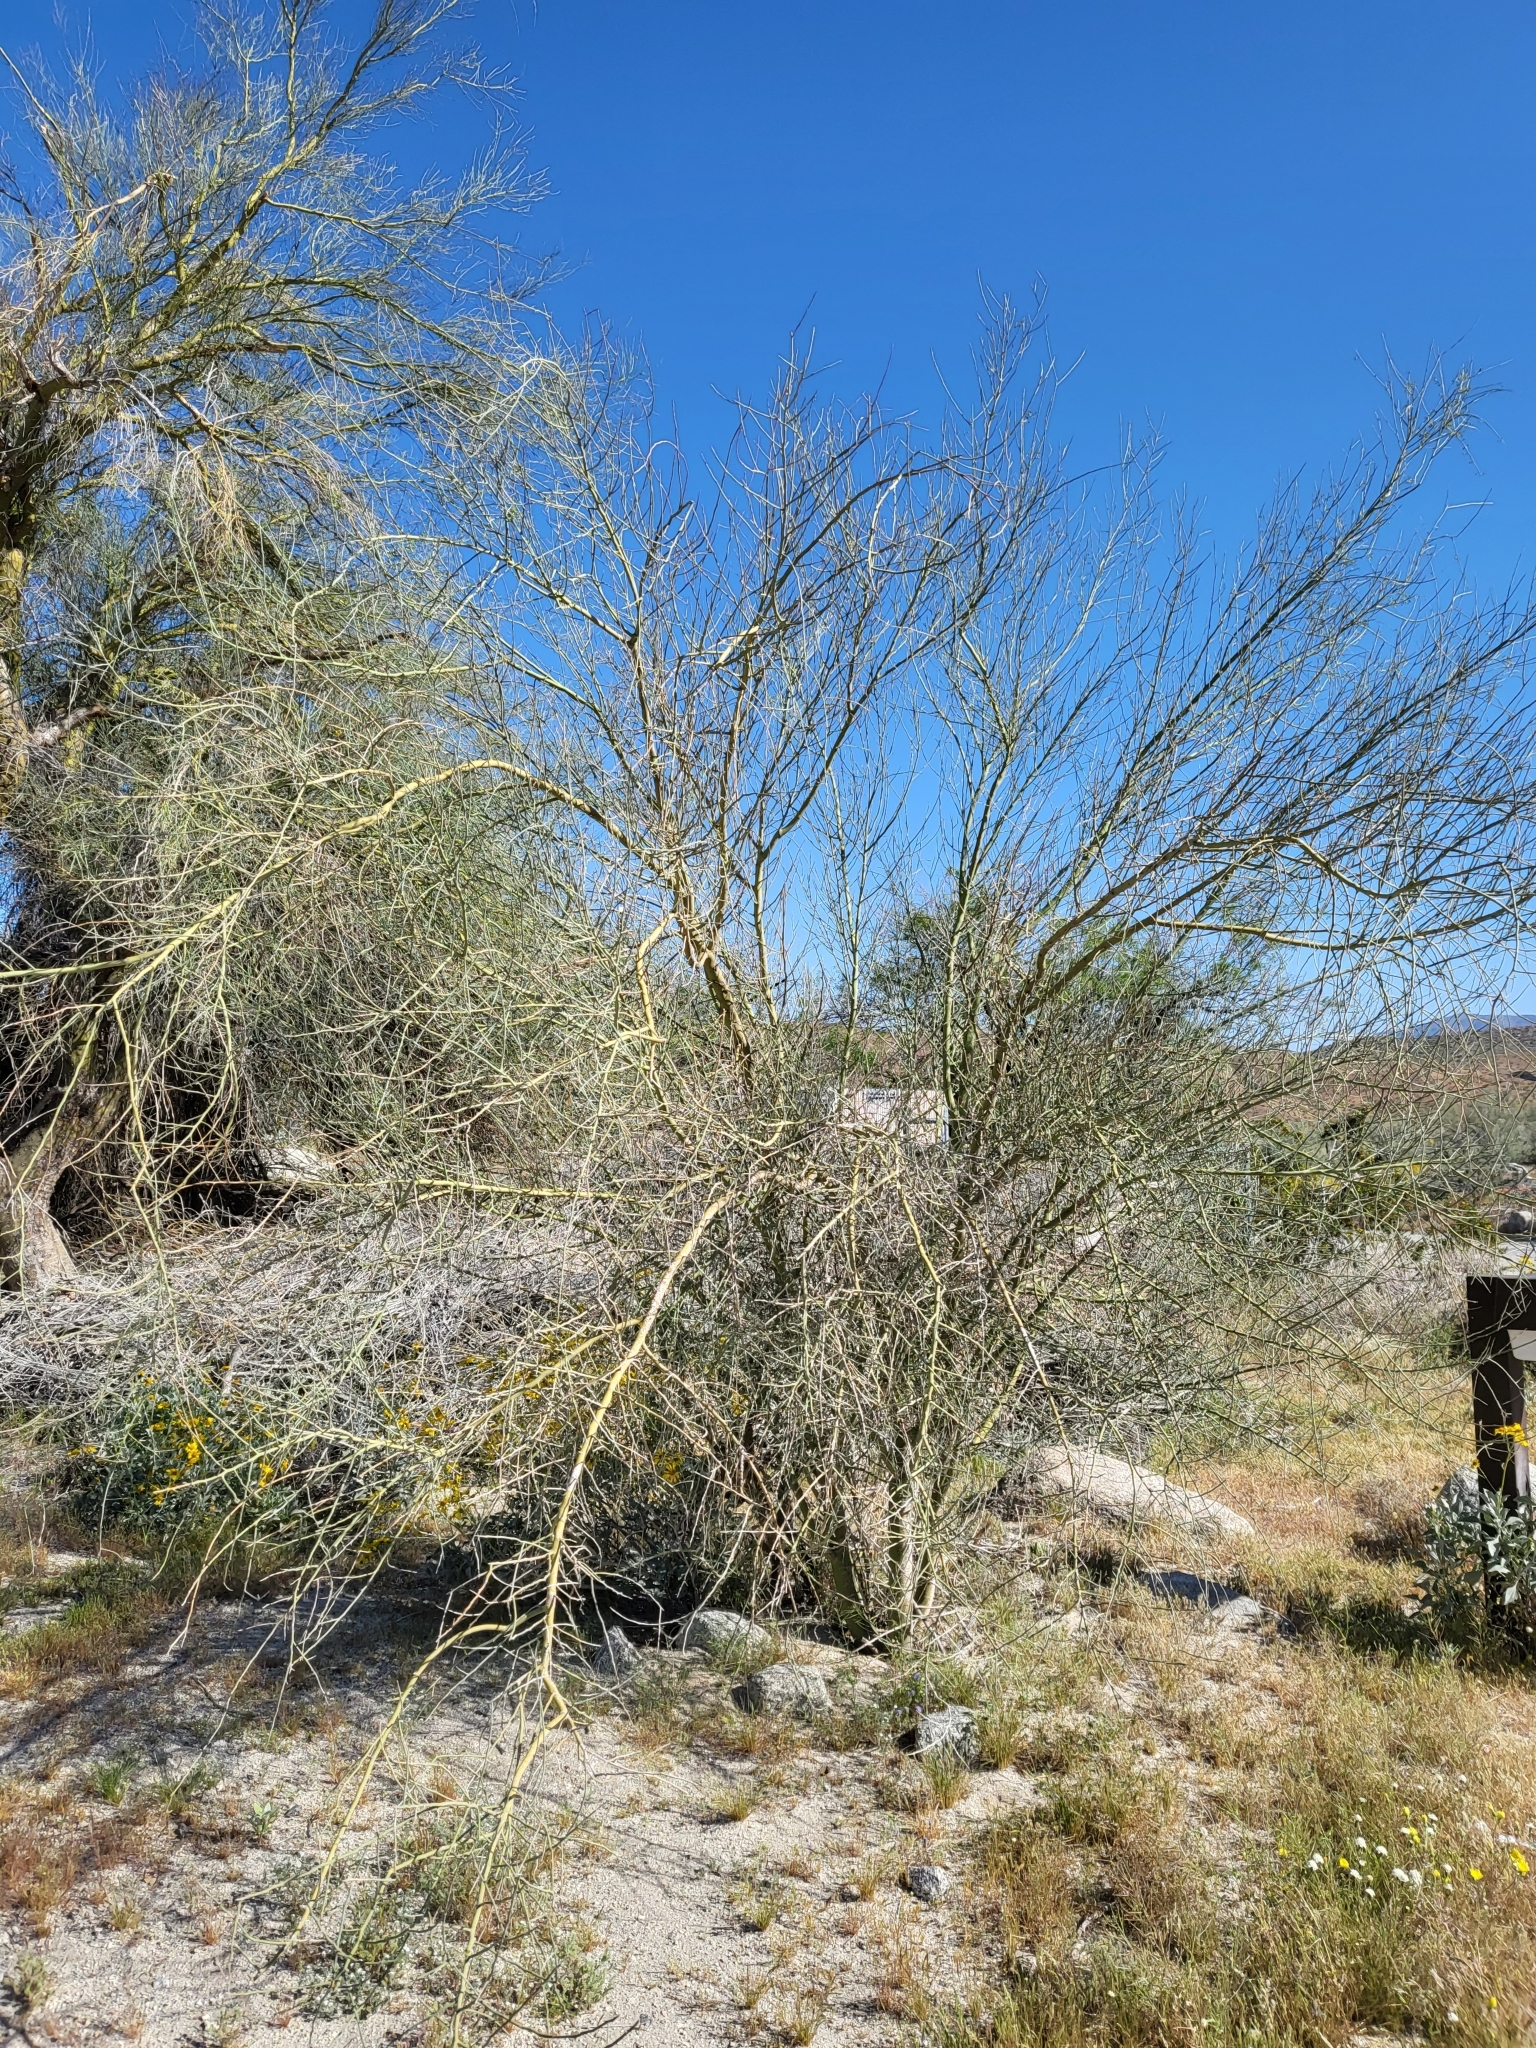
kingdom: Plantae
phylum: Tracheophyta
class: Magnoliopsida
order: Fabales
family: Fabaceae
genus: Parkinsonia
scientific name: Parkinsonia florida
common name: Blue paloverde
